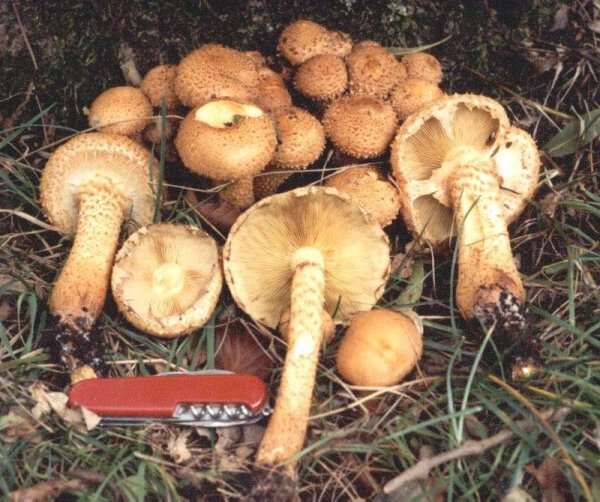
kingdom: Fungi
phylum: Basidiomycota
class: Agaricomycetes
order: Agaricales
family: Strophariaceae
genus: Pholiota
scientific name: Pholiota squarrosa
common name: Shaggy pholiota
